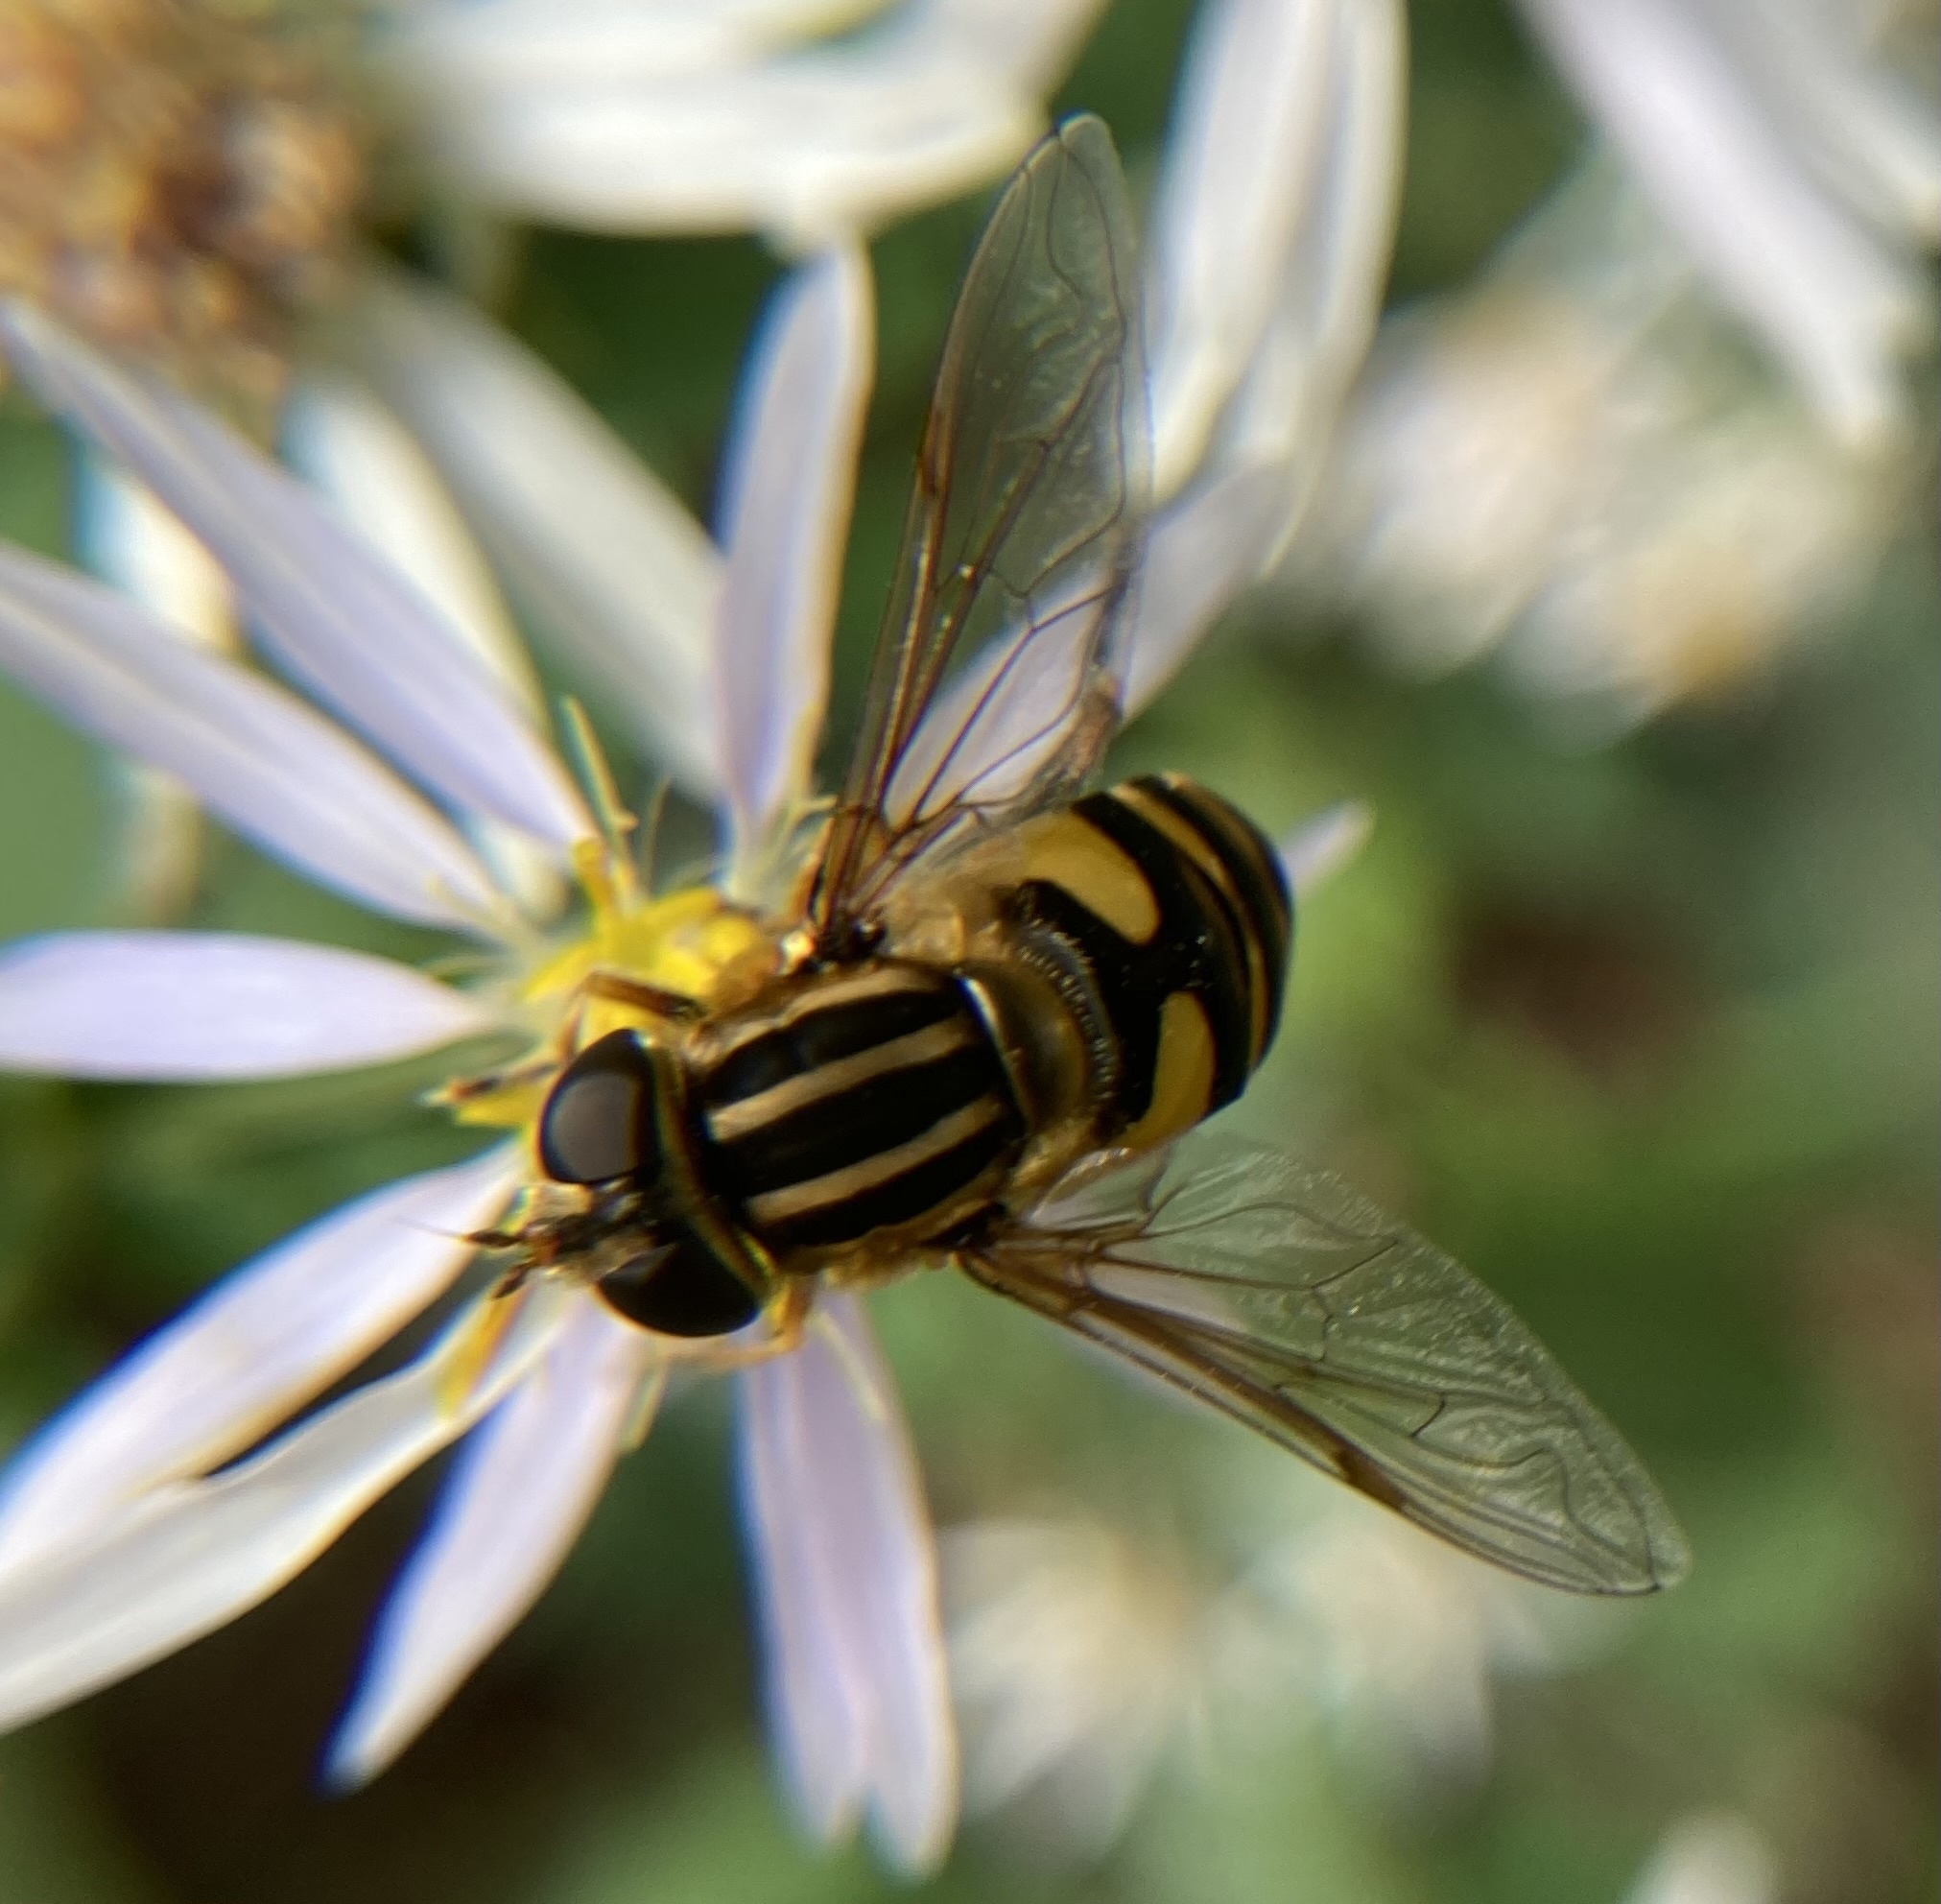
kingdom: Animalia
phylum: Arthropoda
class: Insecta
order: Diptera
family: Syrphidae
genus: Helophilus
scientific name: Helophilus fasciatus
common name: Narrow-headed marsh fly
